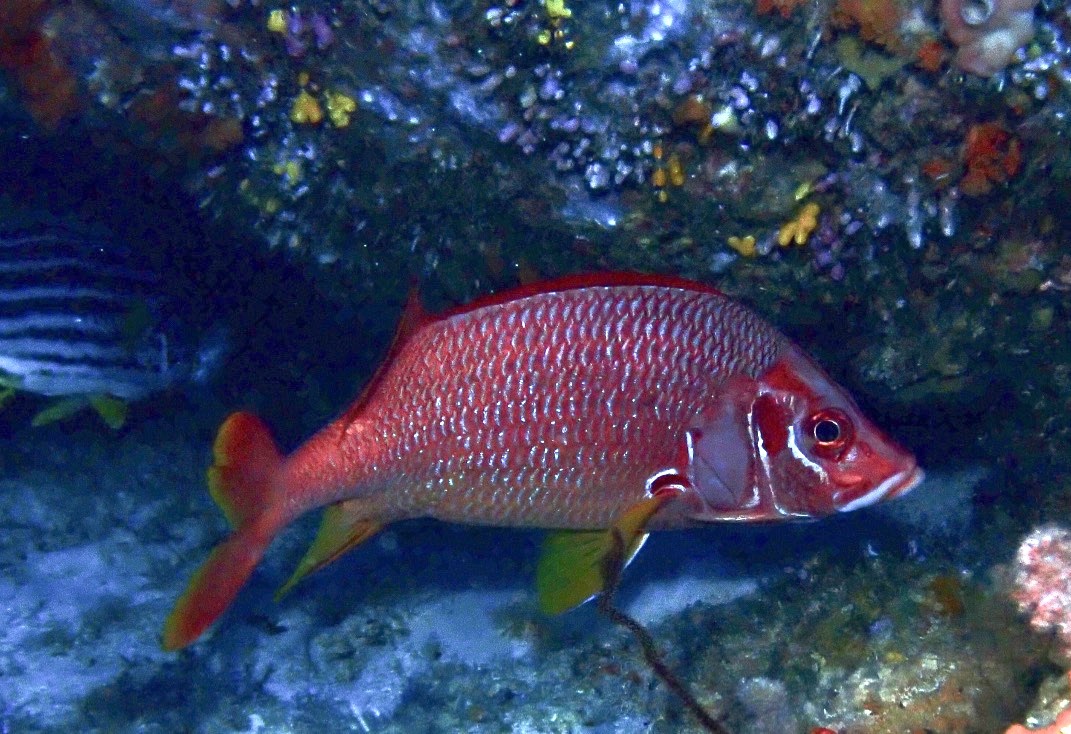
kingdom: Animalia
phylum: Chordata
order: Beryciformes
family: Holocentridae
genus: Sargocentron
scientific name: Sargocentron spiniferum
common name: Giant squirrelfish
